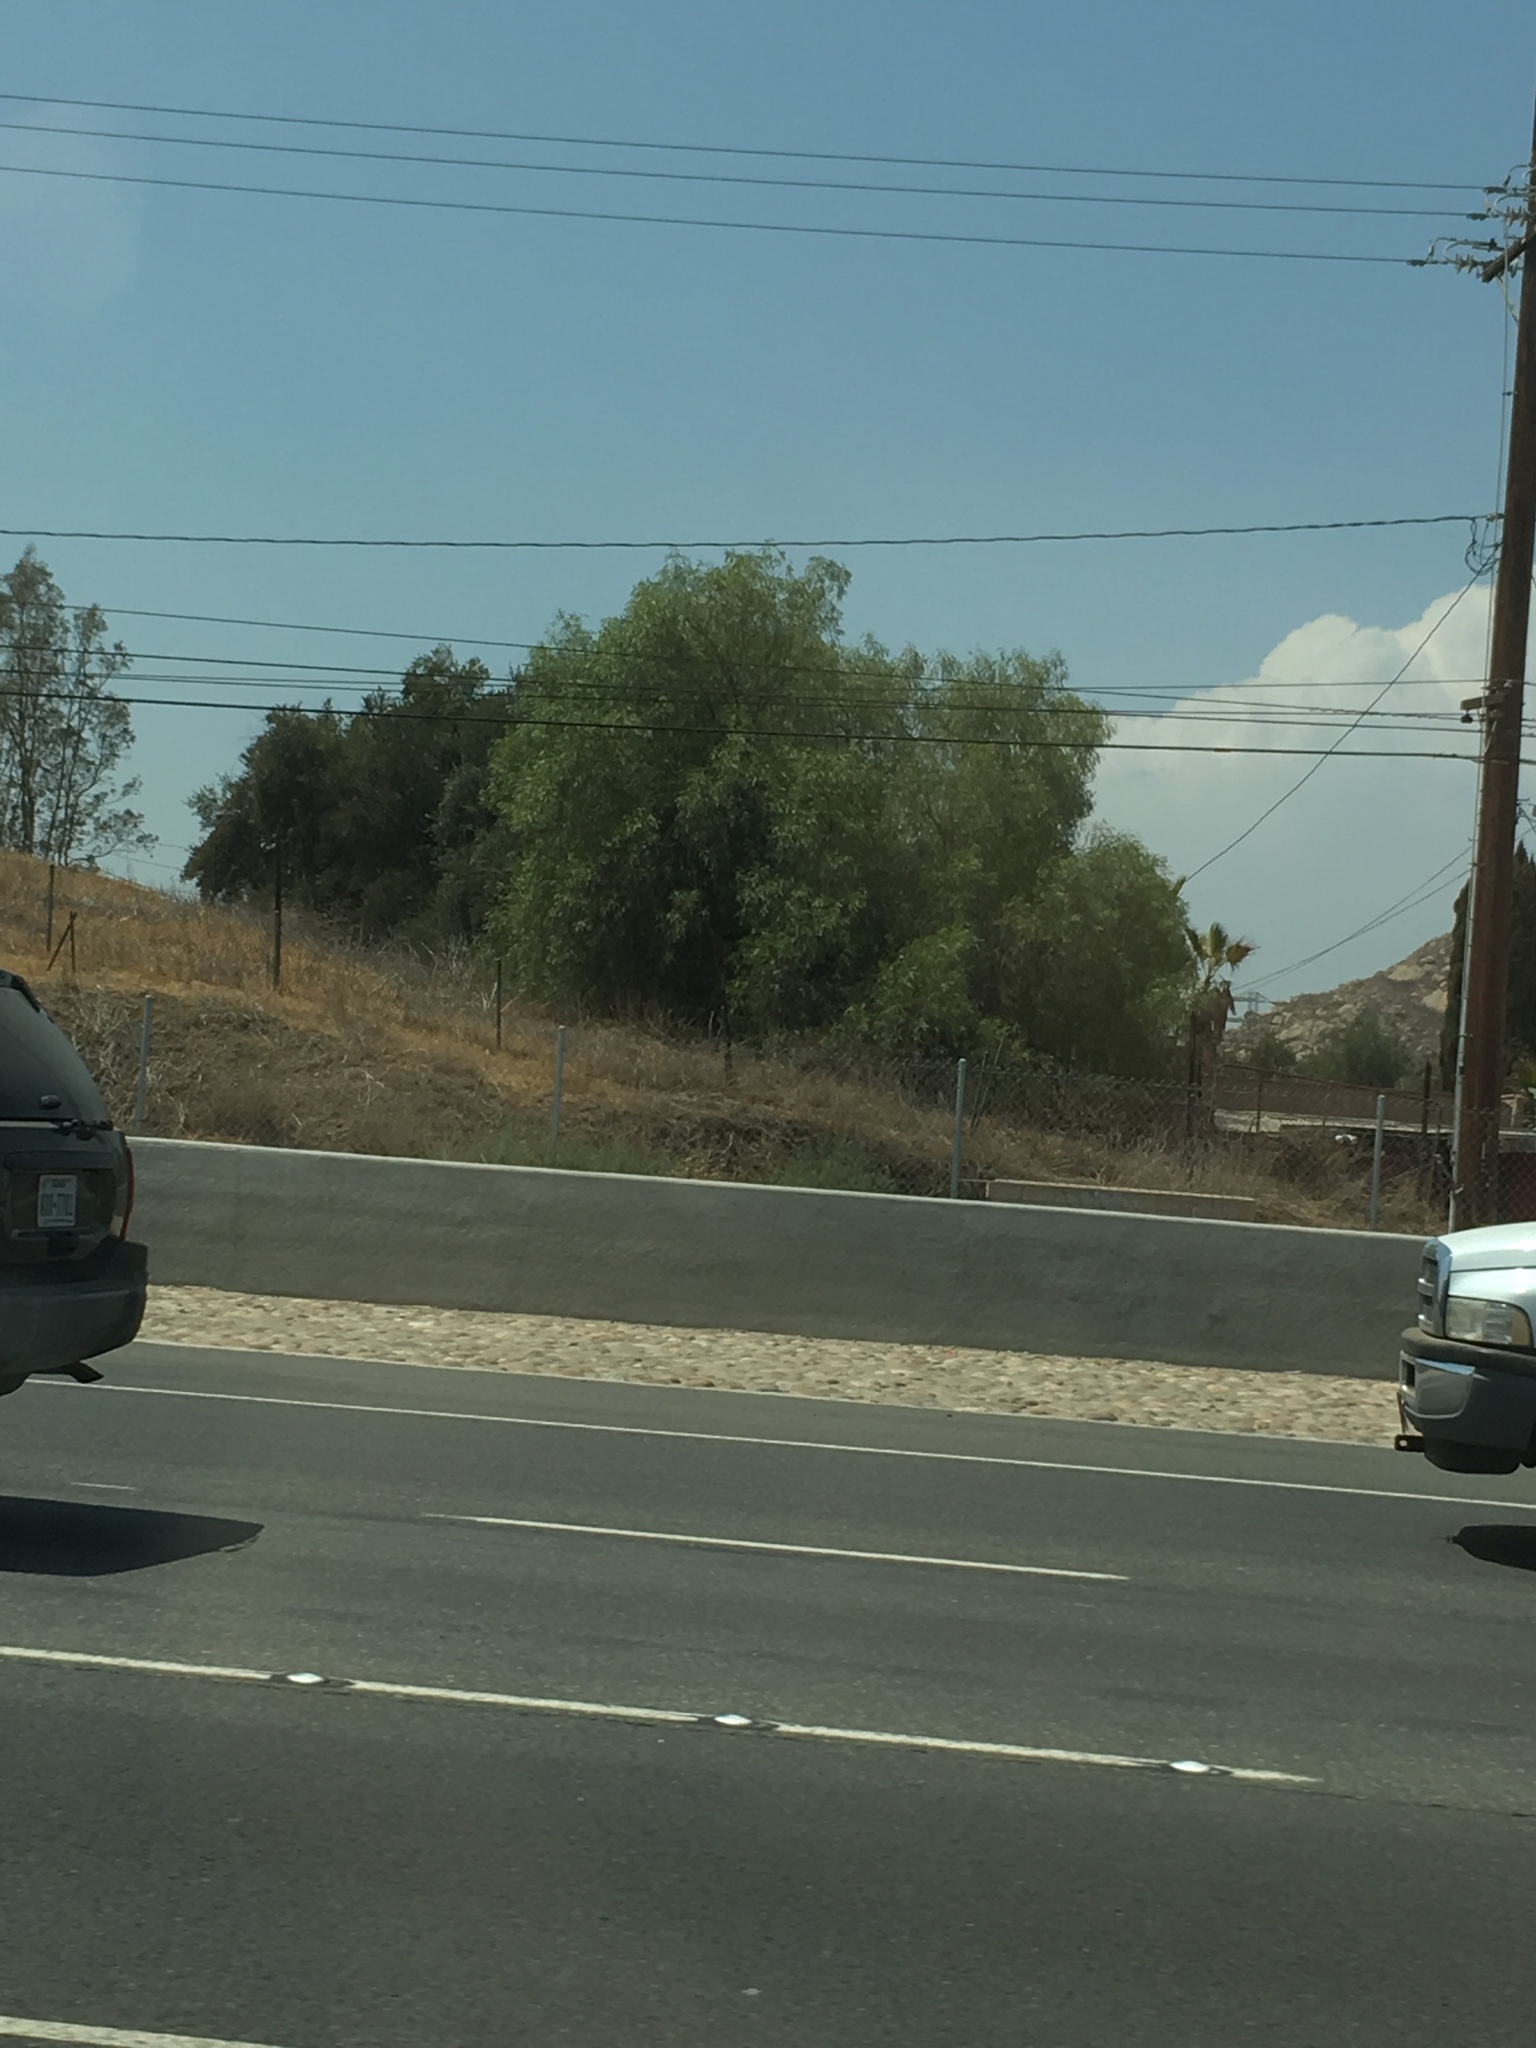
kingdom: Plantae
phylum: Tracheophyta
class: Magnoliopsida
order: Sapindales
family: Anacardiaceae
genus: Schinus
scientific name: Schinus molle
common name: Peruvian peppertree
